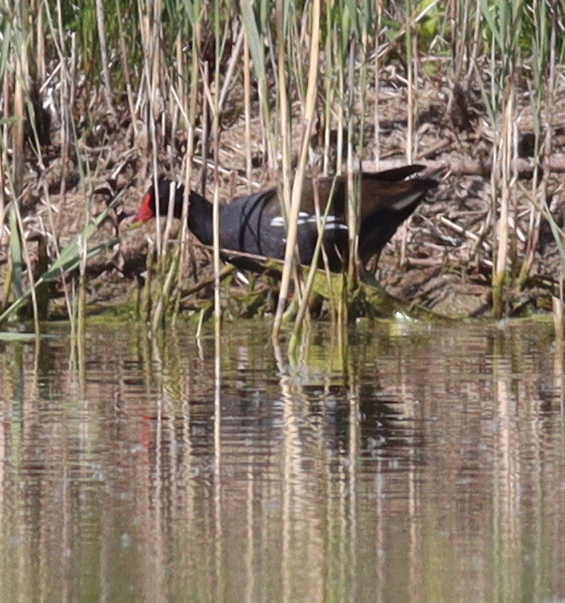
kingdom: Animalia
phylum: Chordata
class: Aves
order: Gruiformes
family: Rallidae
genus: Gallinula
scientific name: Gallinula chloropus
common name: Common moorhen
